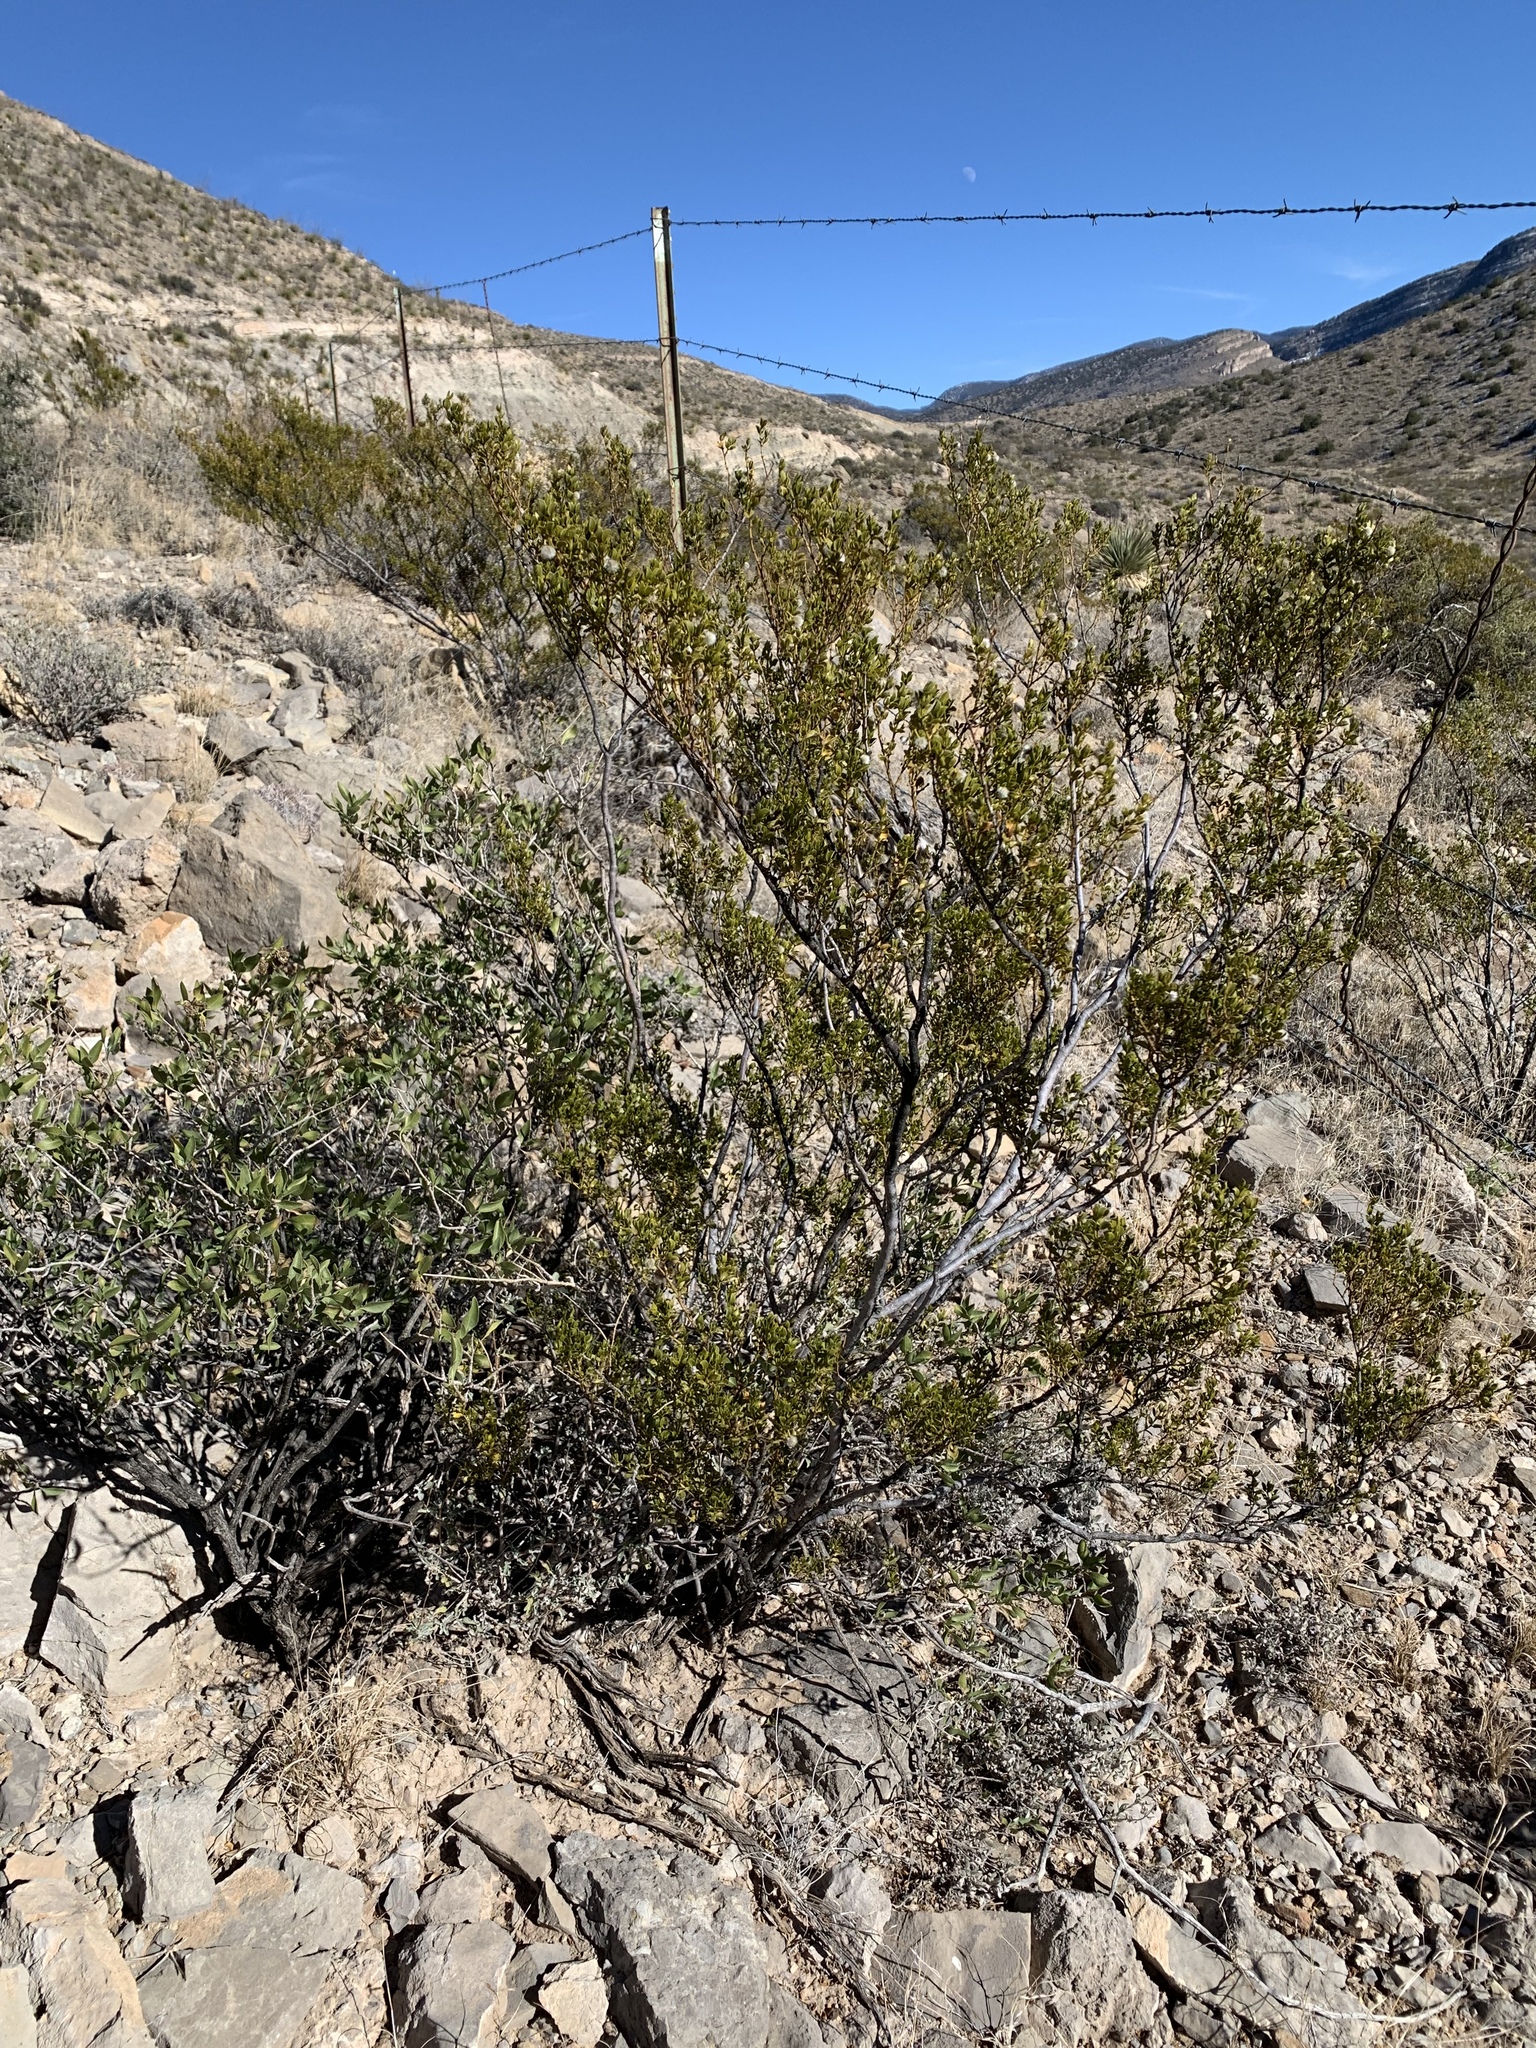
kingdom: Plantae
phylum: Tracheophyta
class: Magnoliopsida
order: Zygophyllales
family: Zygophyllaceae
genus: Larrea
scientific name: Larrea tridentata
